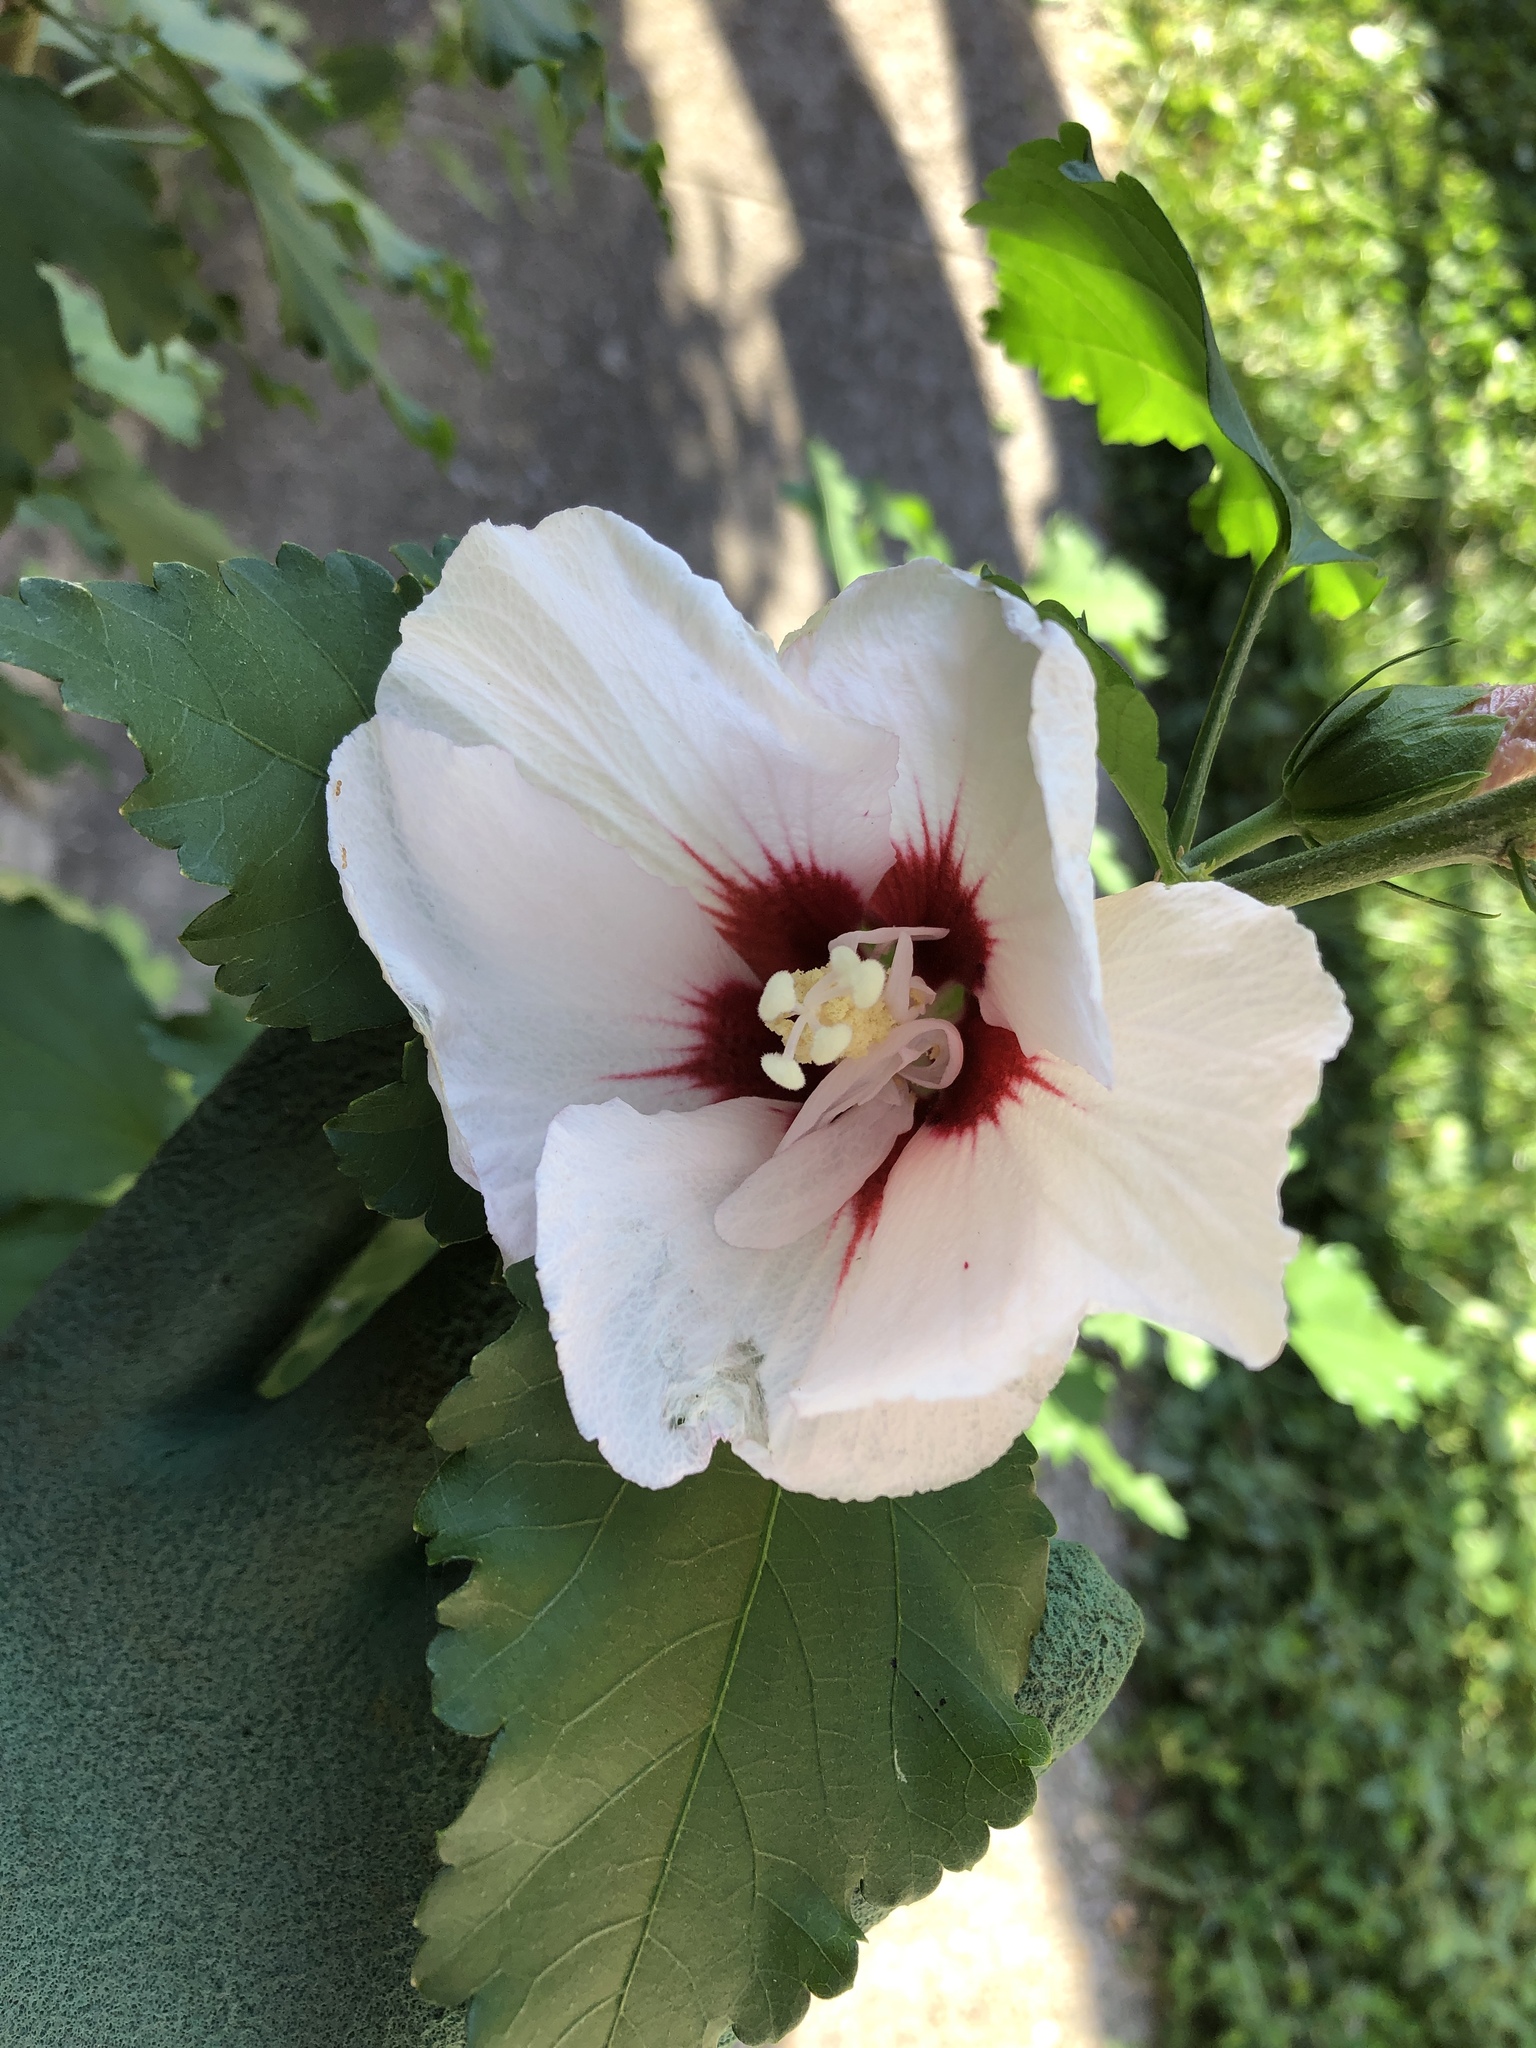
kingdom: Plantae
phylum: Tracheophyta
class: Magnoliopsida
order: Malvales
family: Malvaceae
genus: Hibiscus
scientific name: Hibiscus syriacus
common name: Syrian ketmia
